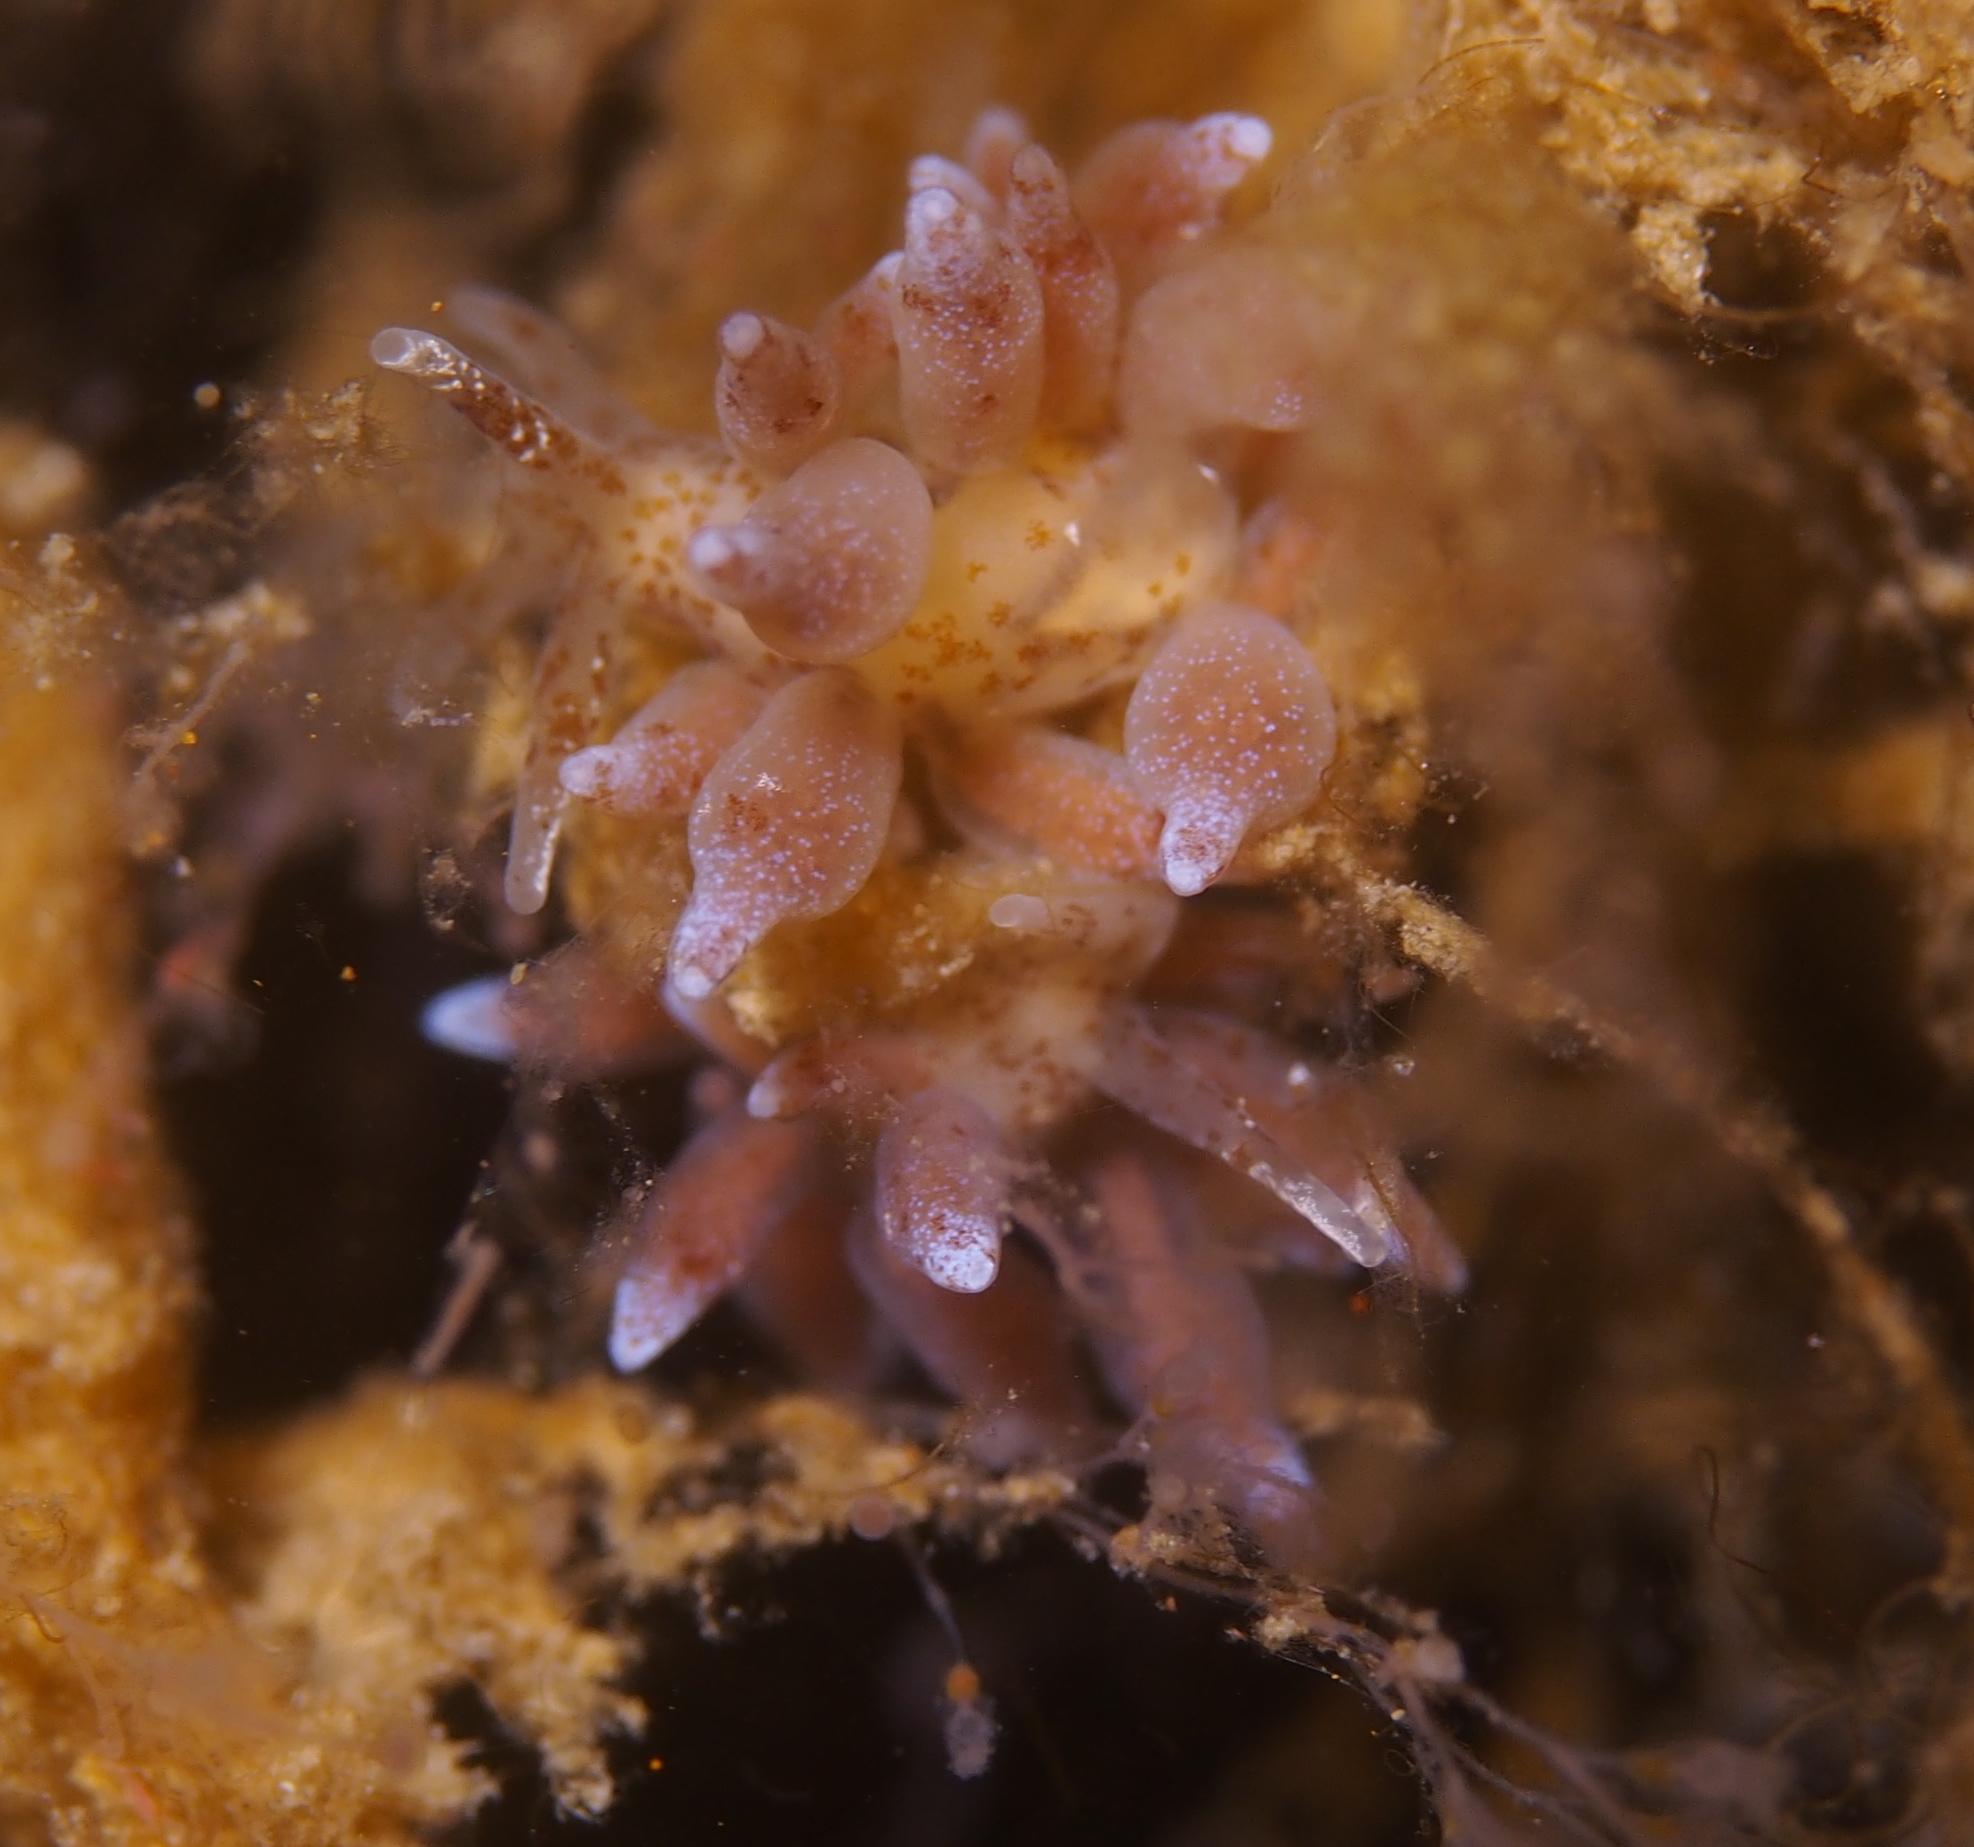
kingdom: Animalia
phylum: Mollusca
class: Gastropoda
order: Nudibranchia
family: Eubranchidae
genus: Eubranchus
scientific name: Eubranchus rupium
